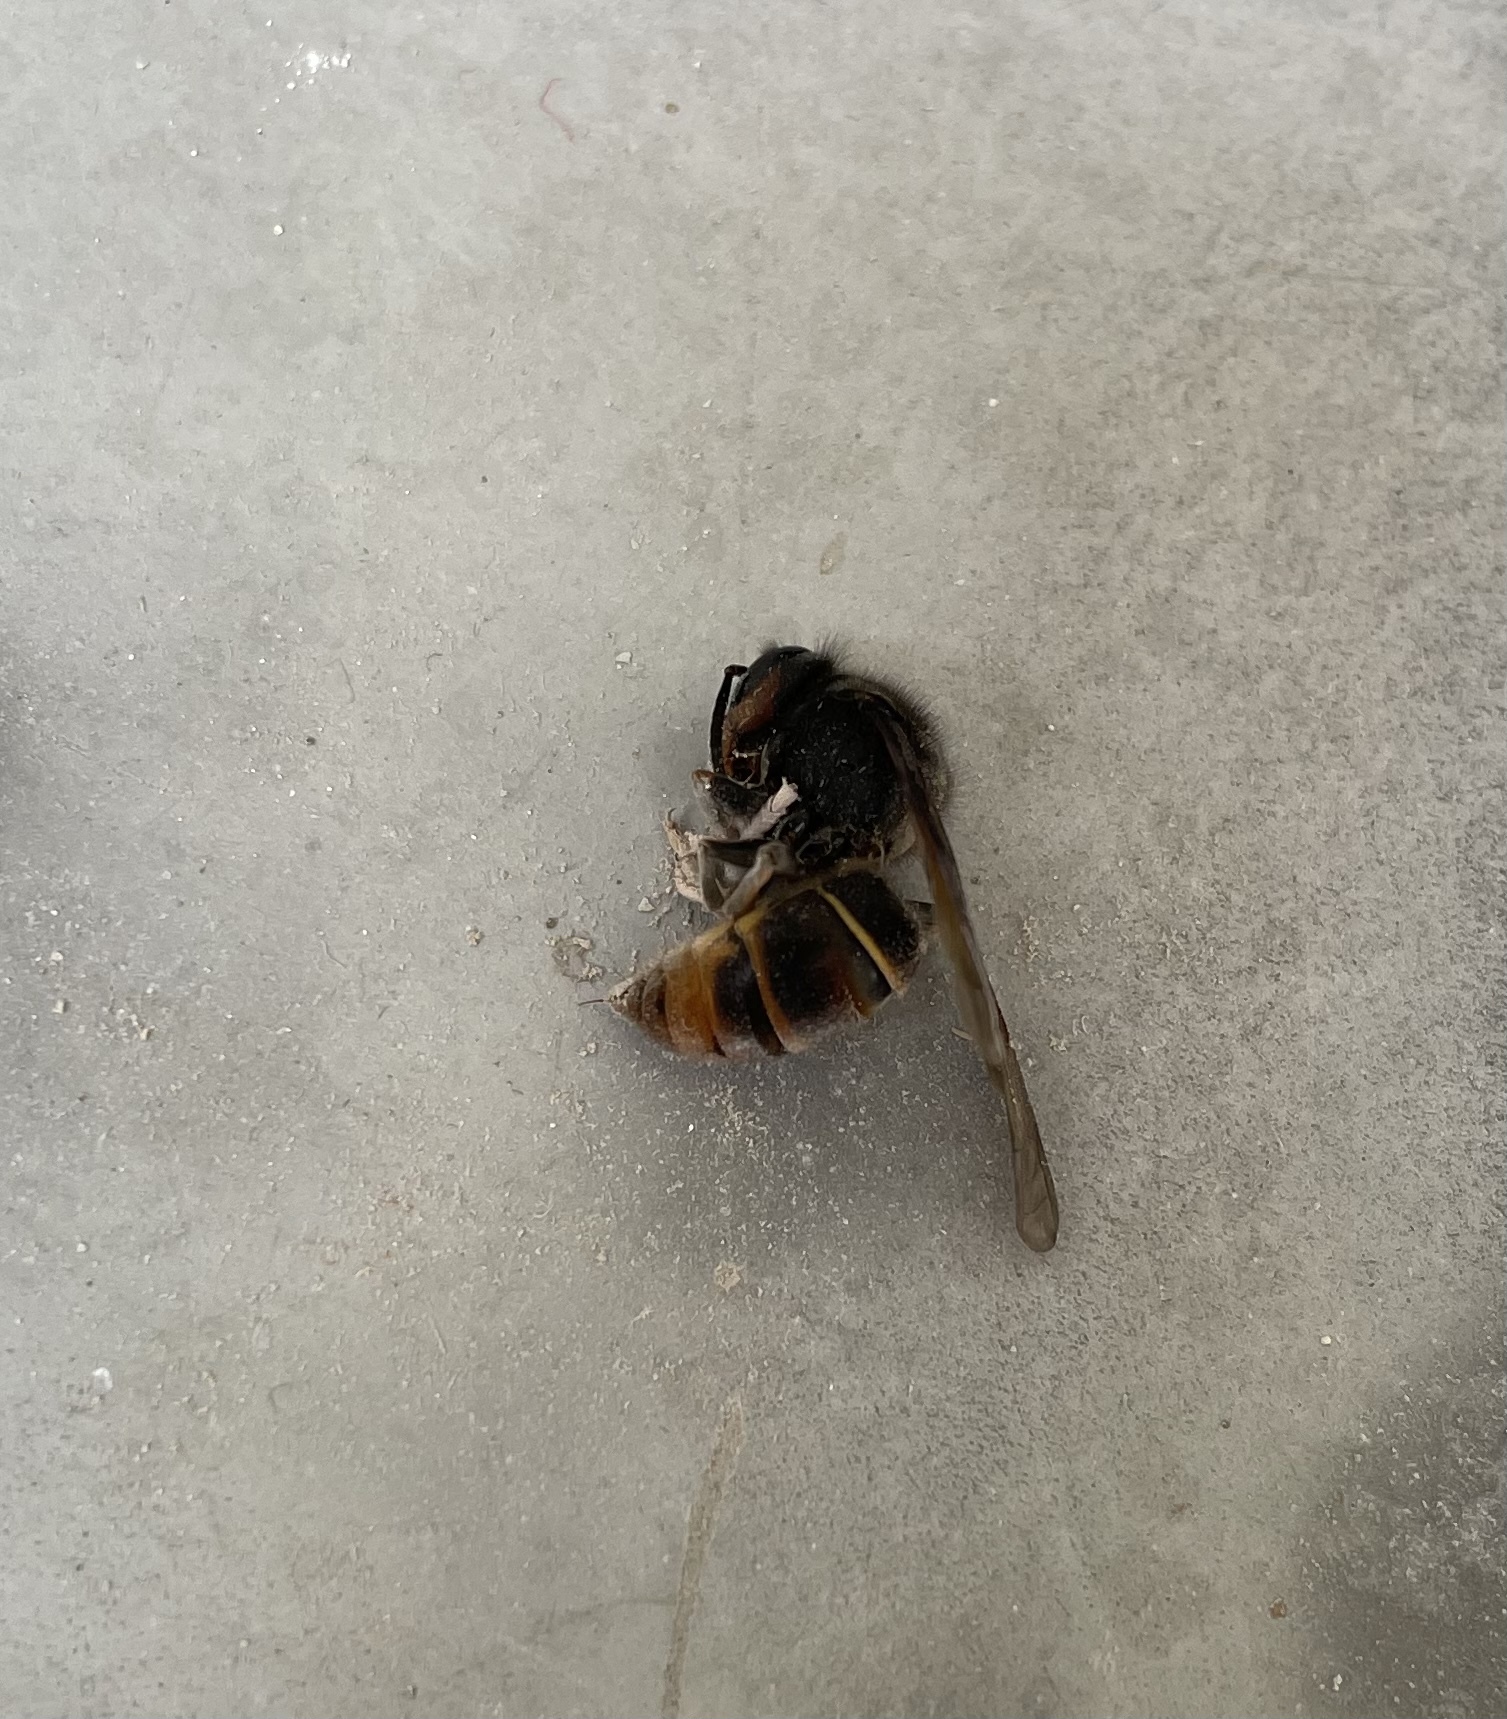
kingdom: Animalia
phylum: Arthropoda
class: Insecta
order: Hymenoptera
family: Vespidae
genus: Vespa
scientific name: Vespa velutina
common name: Asian hornet
